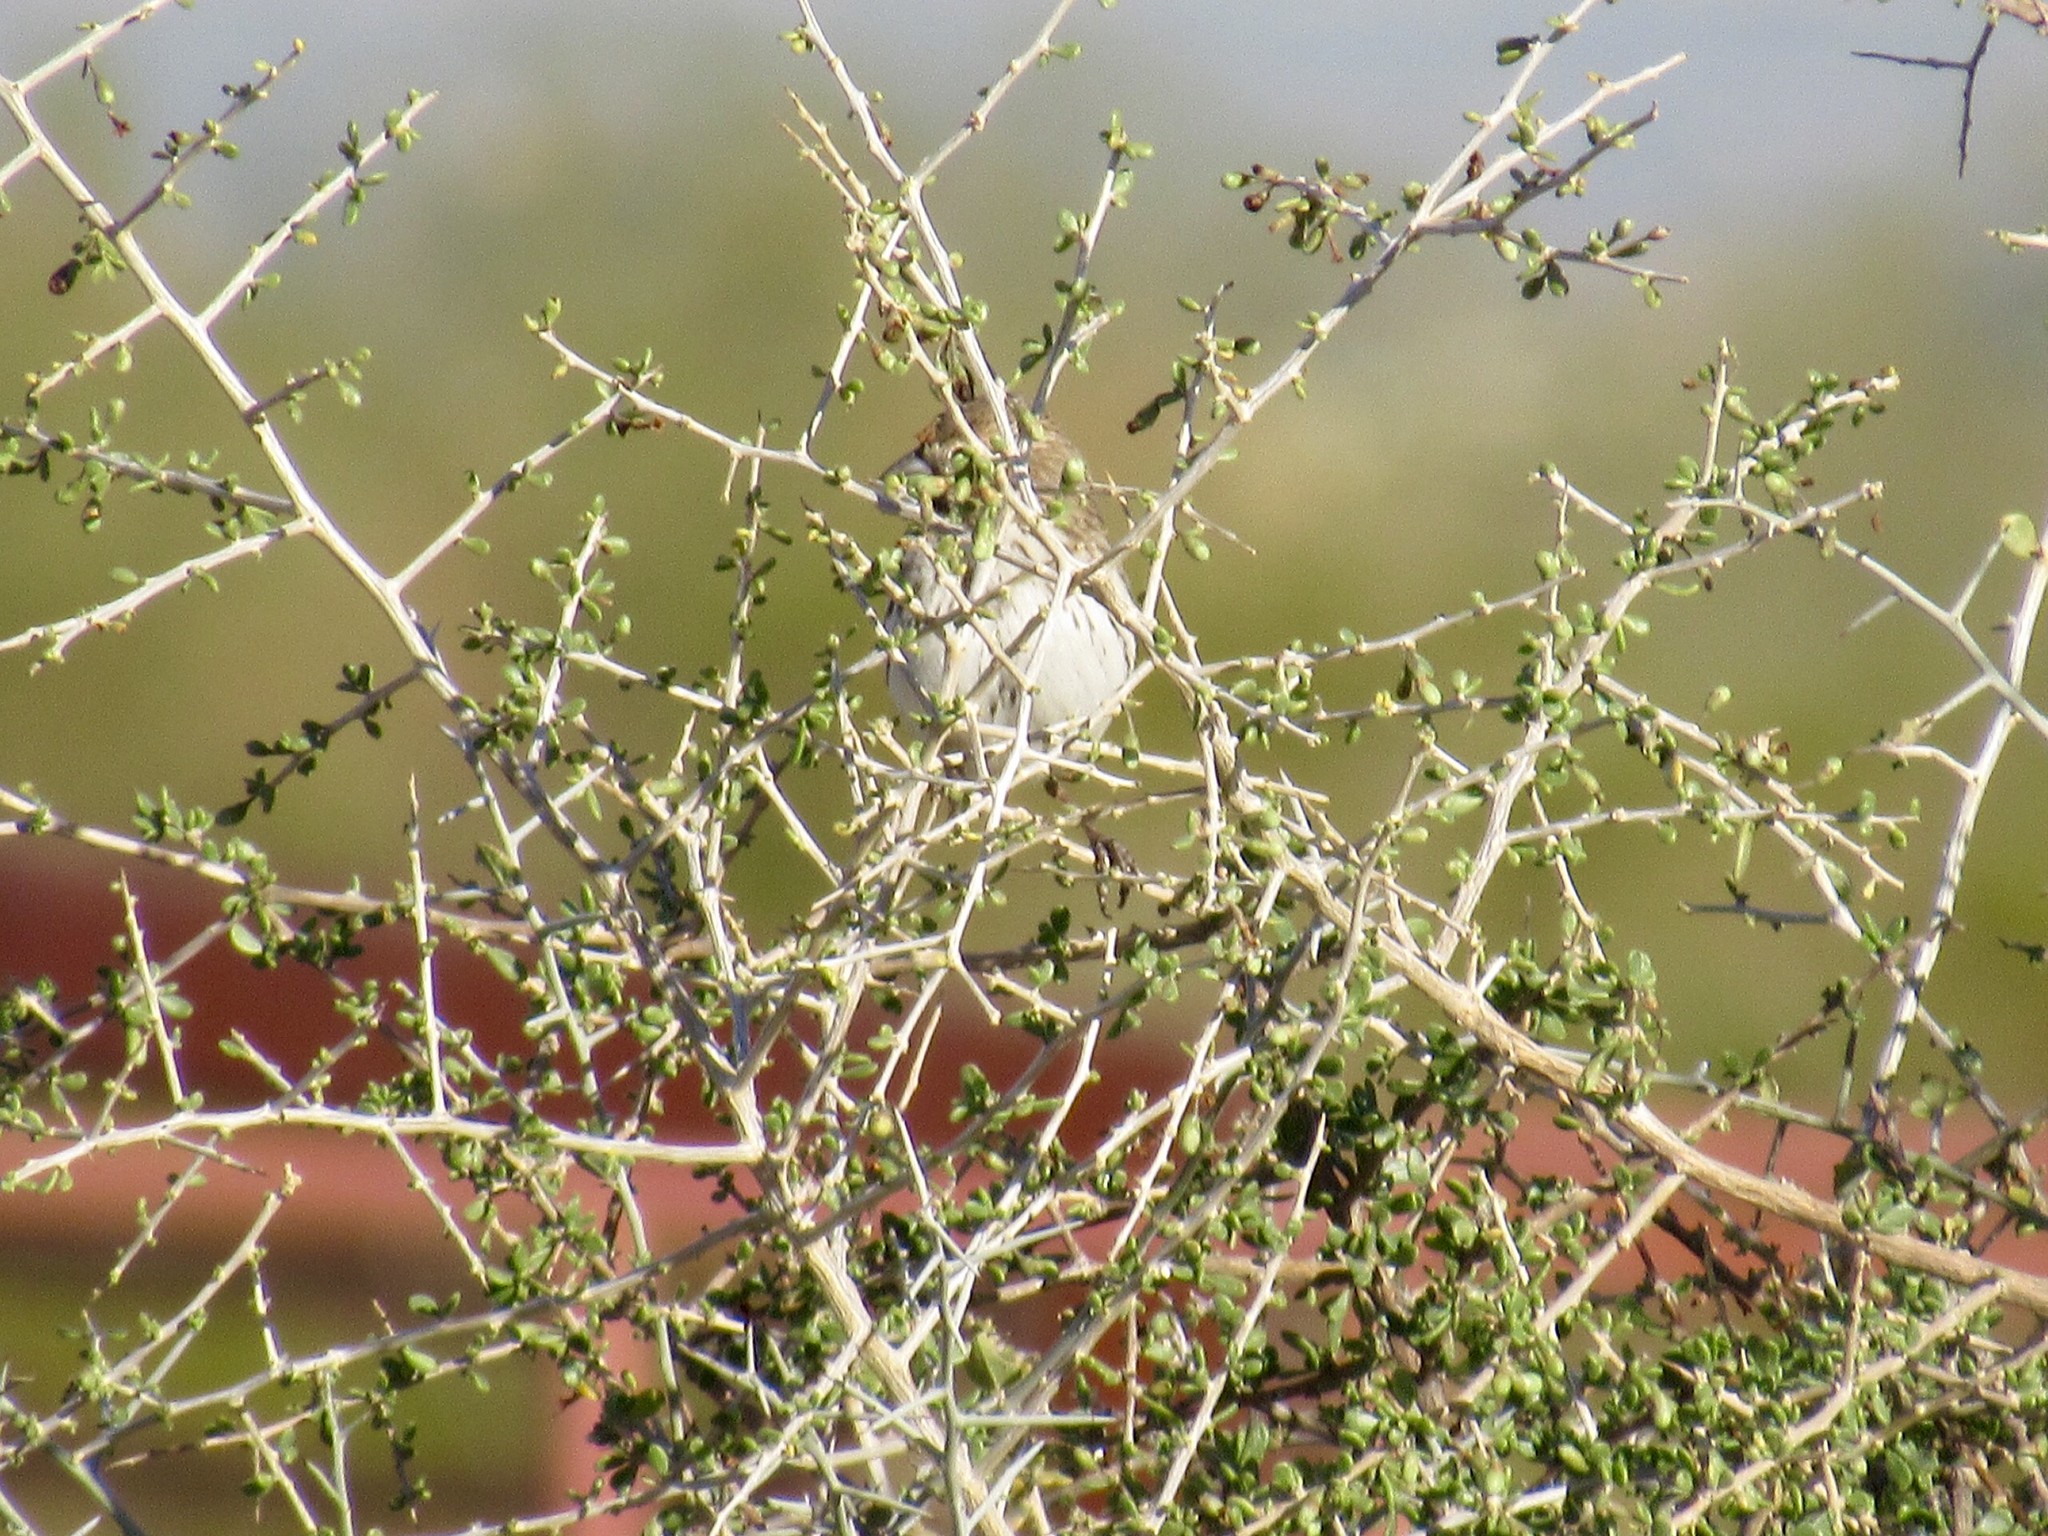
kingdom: Animalia
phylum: Chordata
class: Aves
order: Passeriformes
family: Passerellidae
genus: Calamospiza
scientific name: Calamospiza melanocorys
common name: Lark bunting
